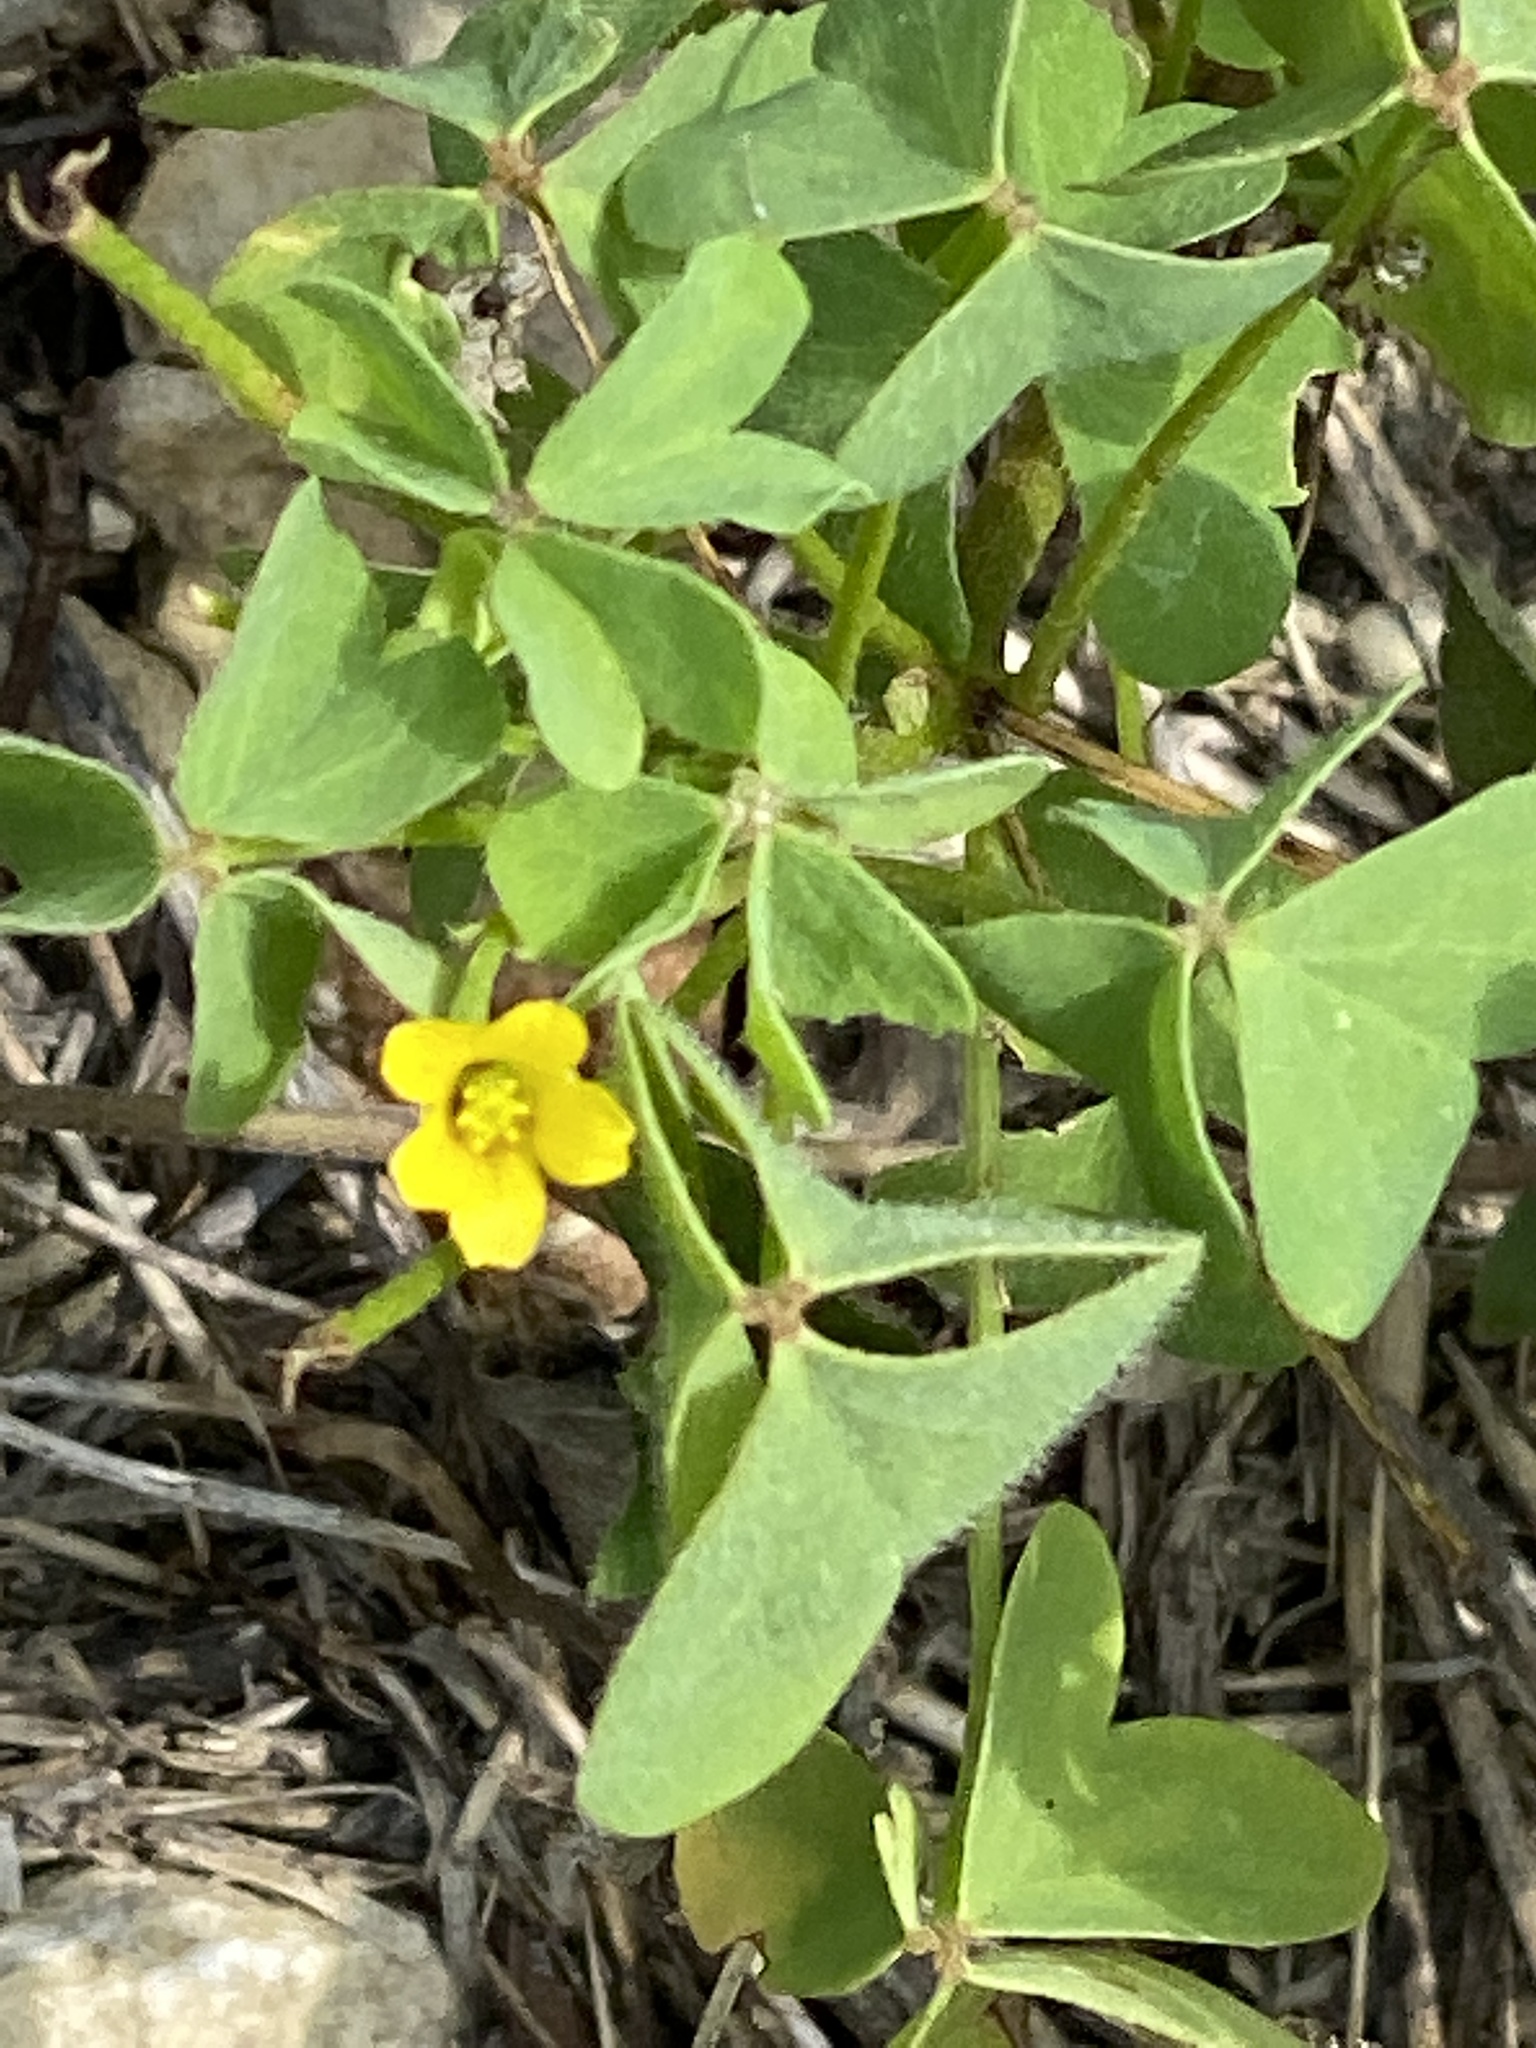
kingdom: Plantae
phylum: Tracheophyta
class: Magnoliopsida
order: Oxalidales
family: Oxalidaceae
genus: Oxalis
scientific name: Oxalis dillenii
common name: Sussex yellow-sorrel
